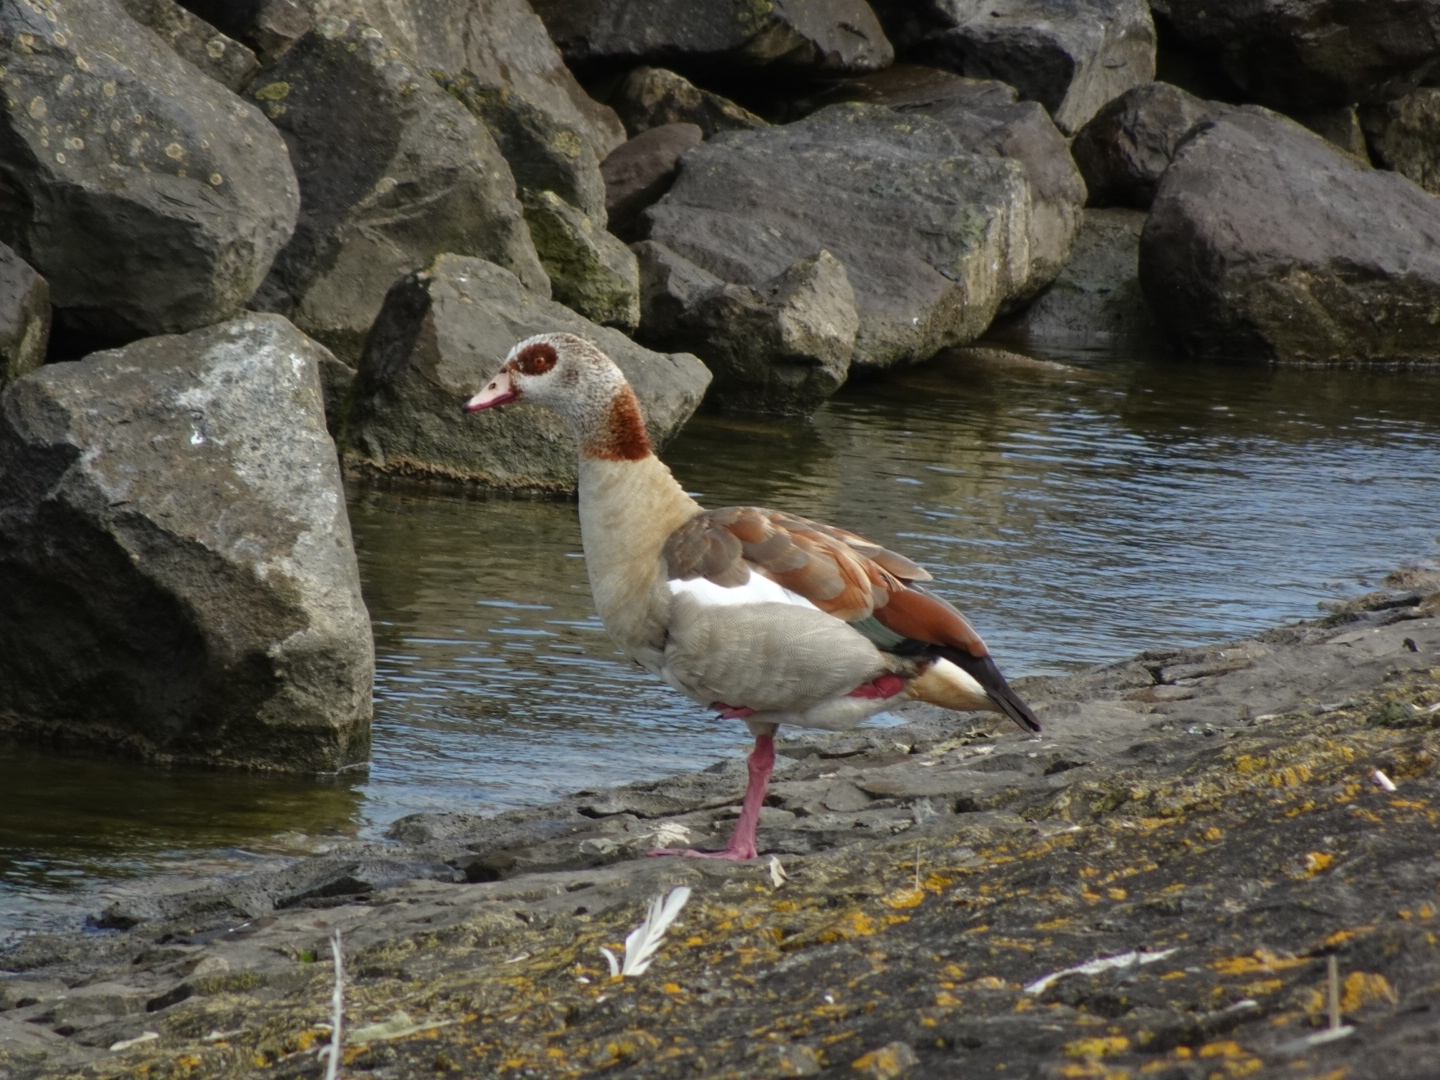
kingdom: Animalia
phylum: Chordata
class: Aves
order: Anseriformes
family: Anatidae
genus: Alopochen
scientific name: Alopochen aegyptiaca
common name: Egyptian goose
